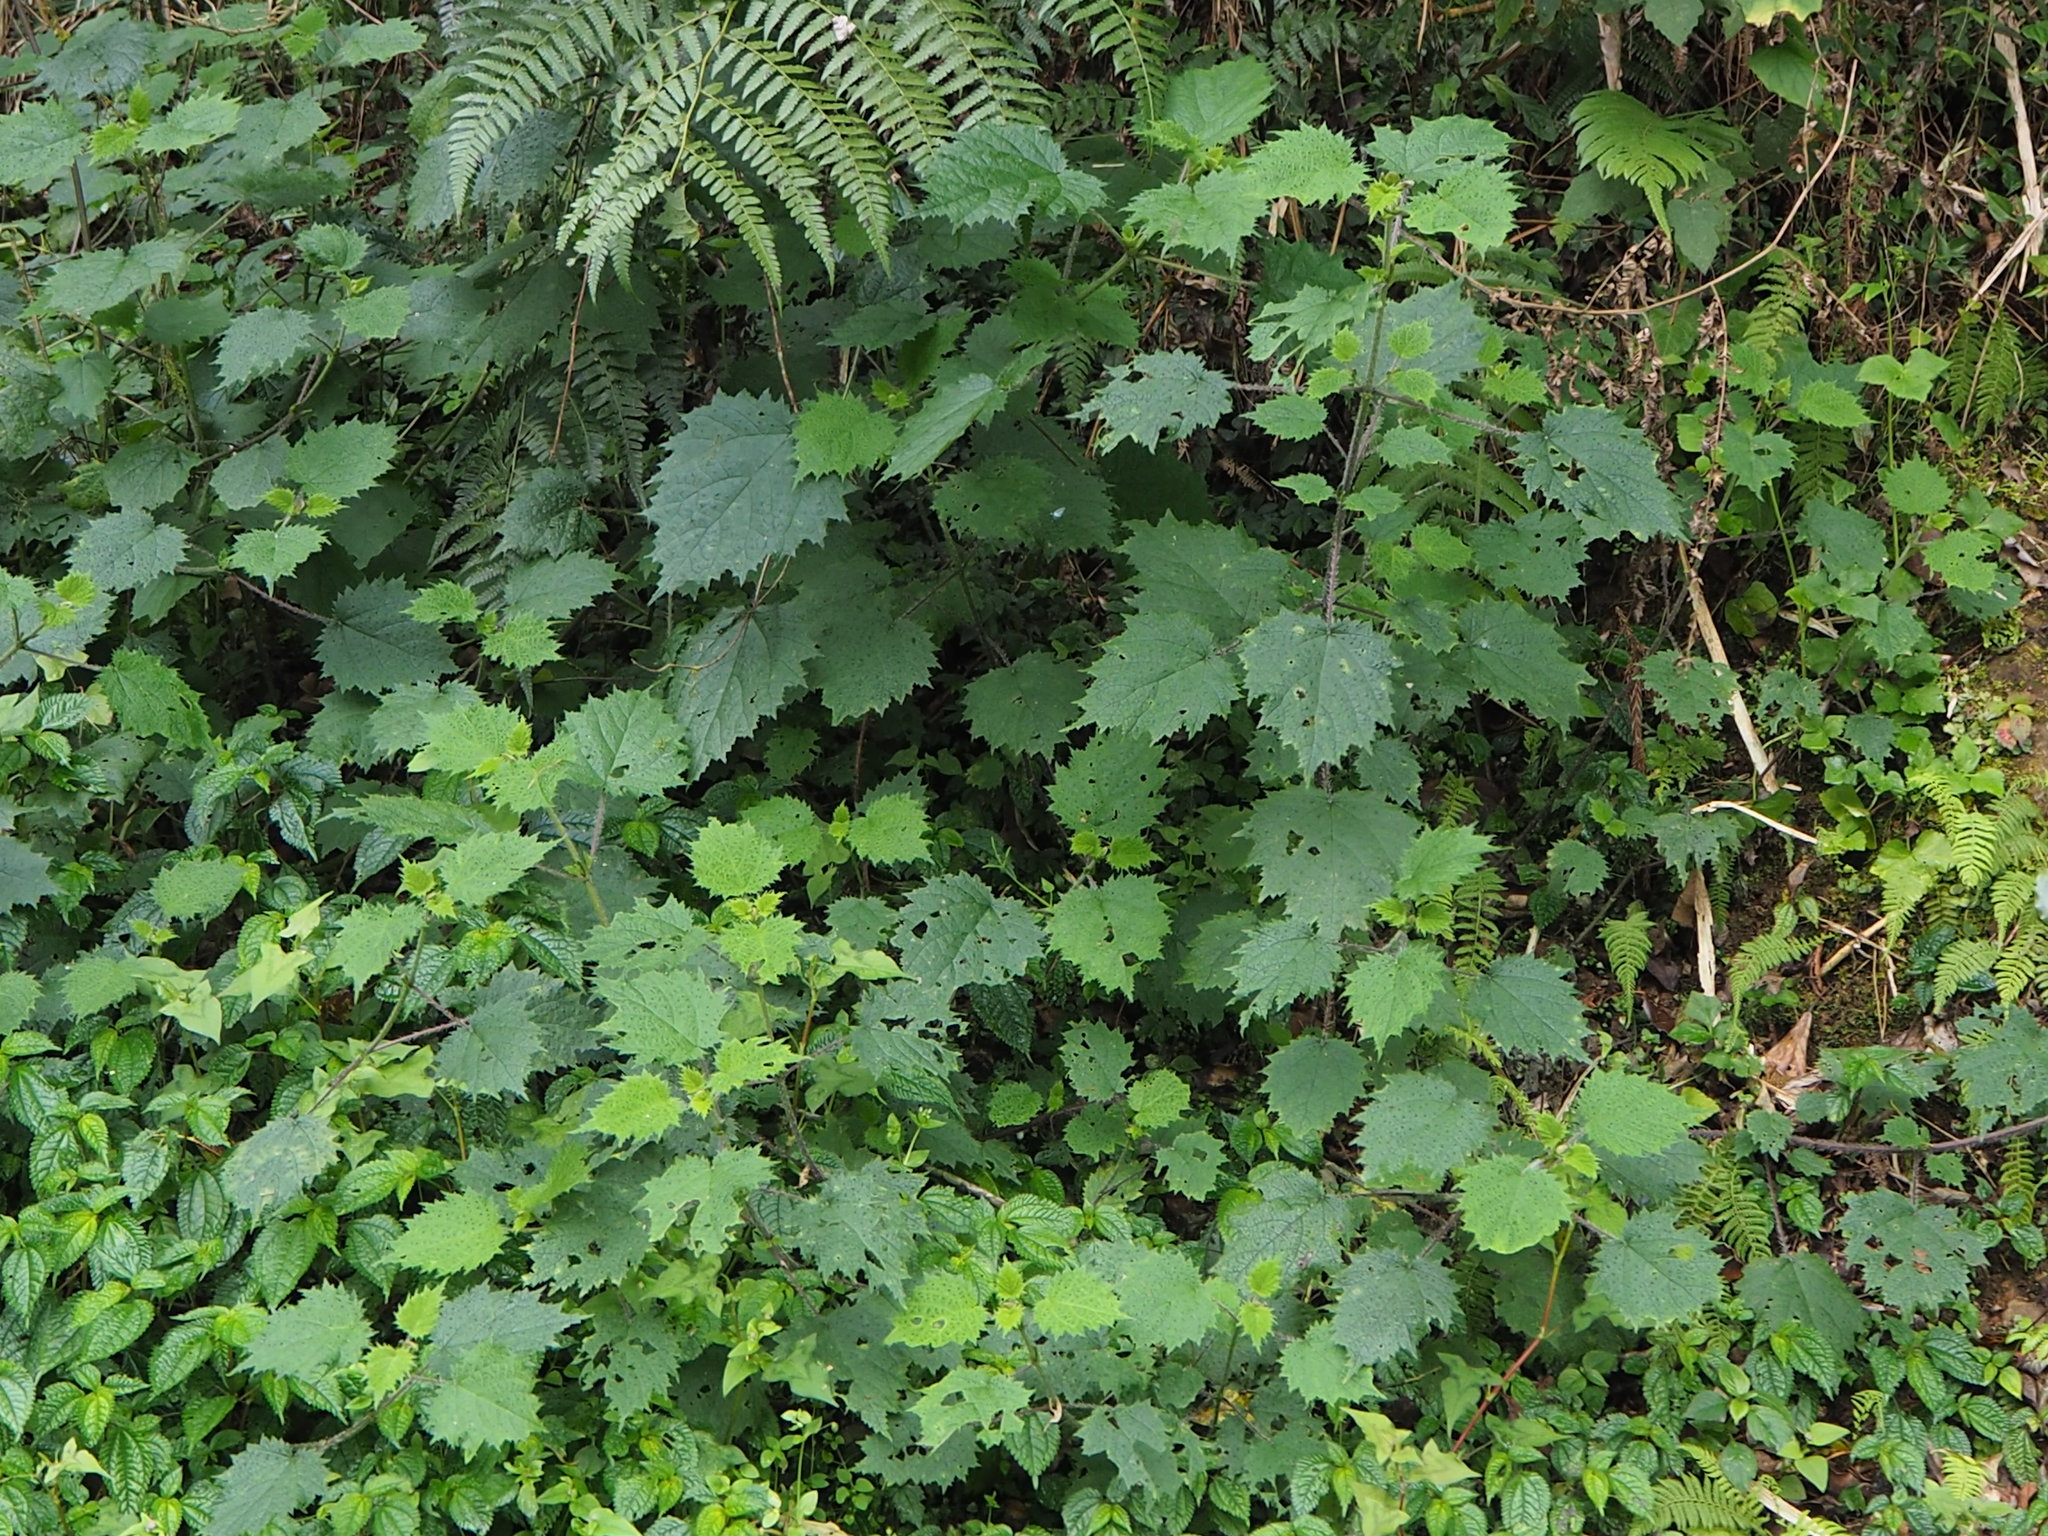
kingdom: Plantae
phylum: Tracheophyta
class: Magnoliopsida
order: Rosales
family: Urticaceae
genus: Urtica
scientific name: Urtica thunbergiana
